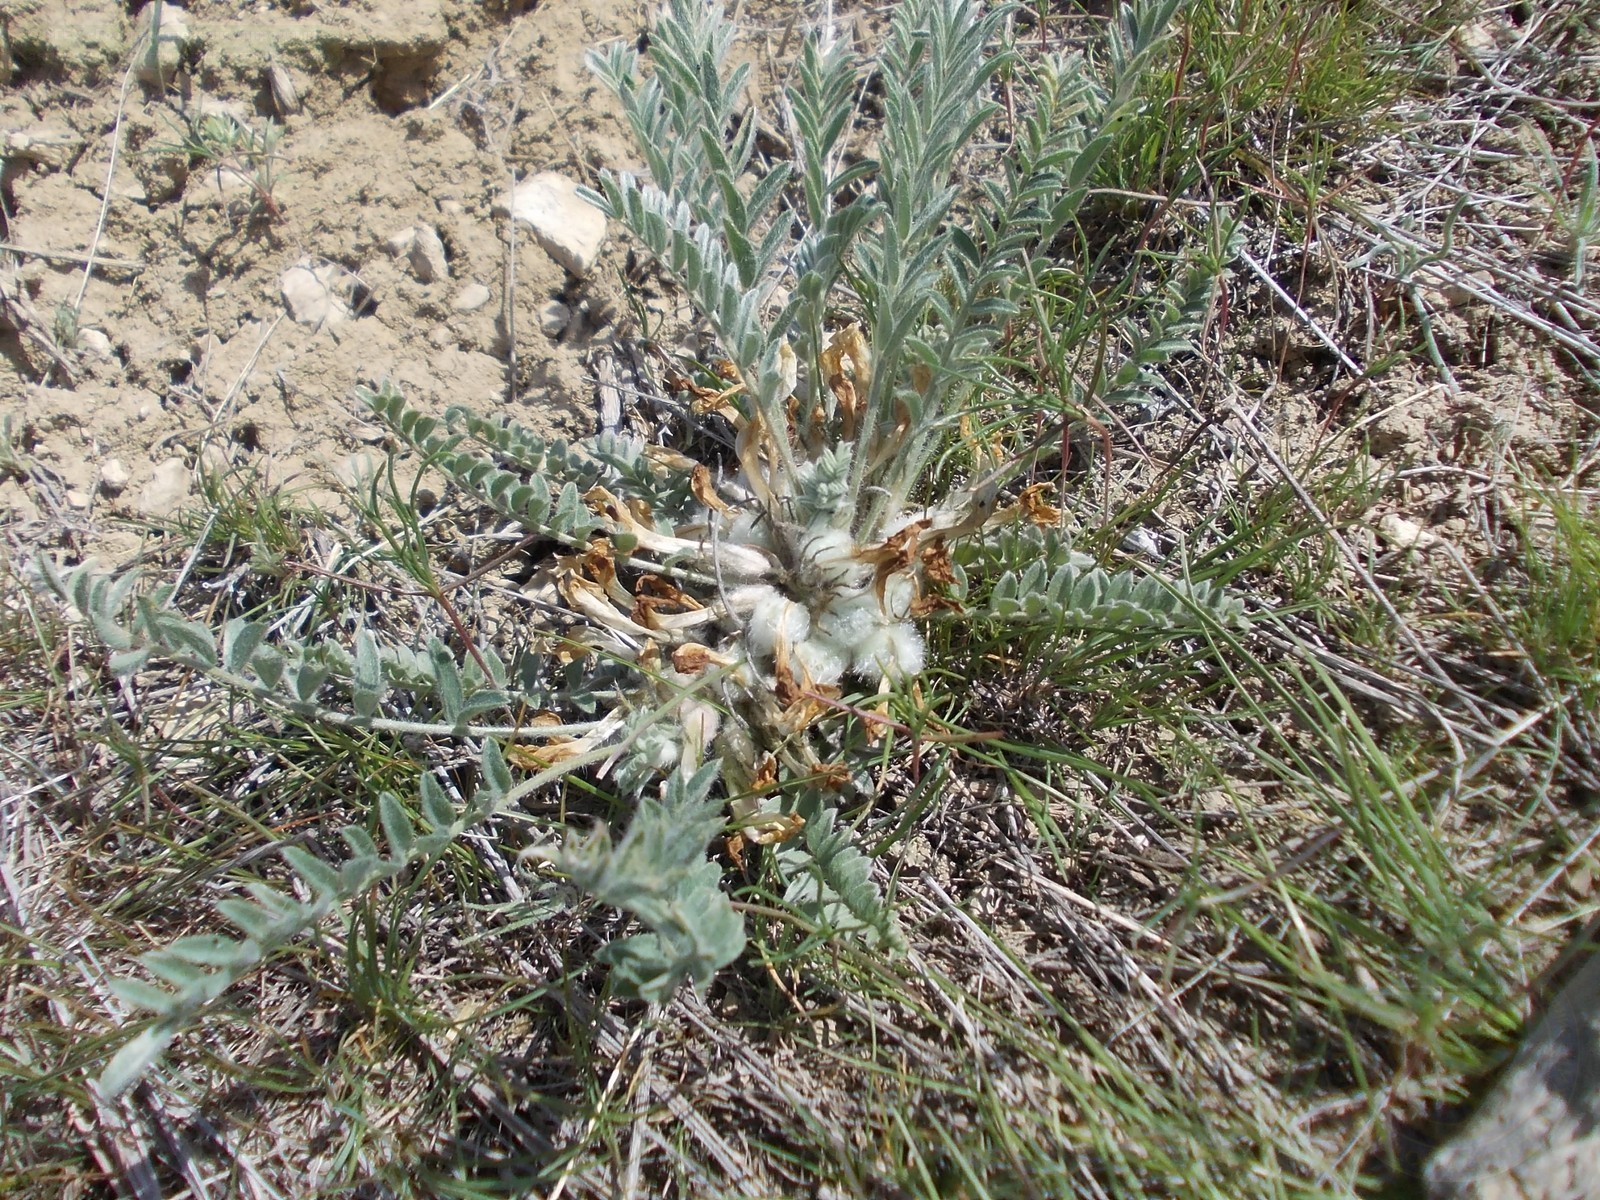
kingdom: Plantae
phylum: Tracheophyta
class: Magnoliopsida
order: Fabales
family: Fabaceae
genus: Astragalus
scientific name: Astragalus testiculatus
